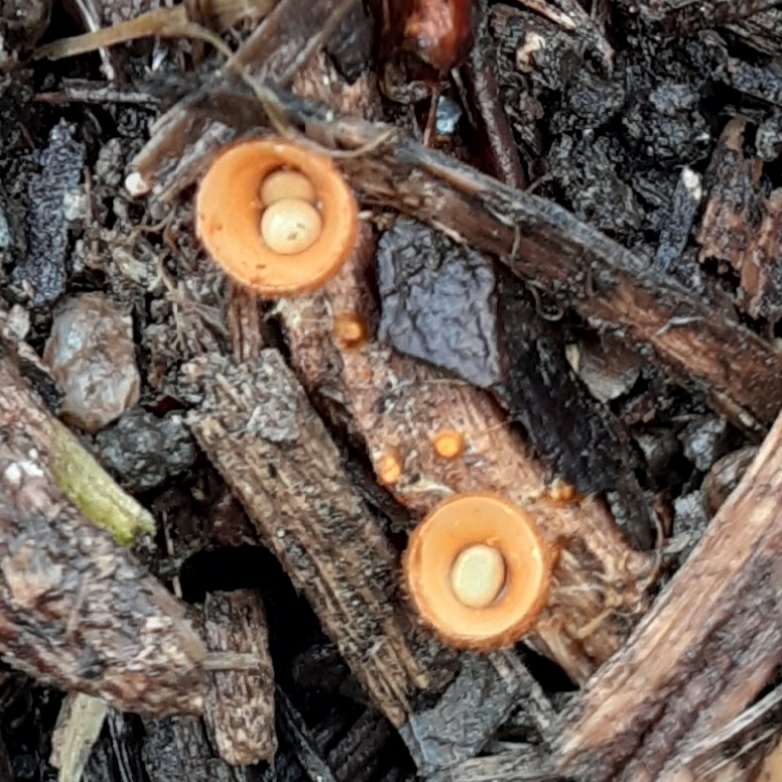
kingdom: Fungi
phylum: Basidiomycota
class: Agaricomycetes
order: Agaricales
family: Nidulariaceae
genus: Crucibulum
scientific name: Crucibulum laeve
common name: Common bird's nest
